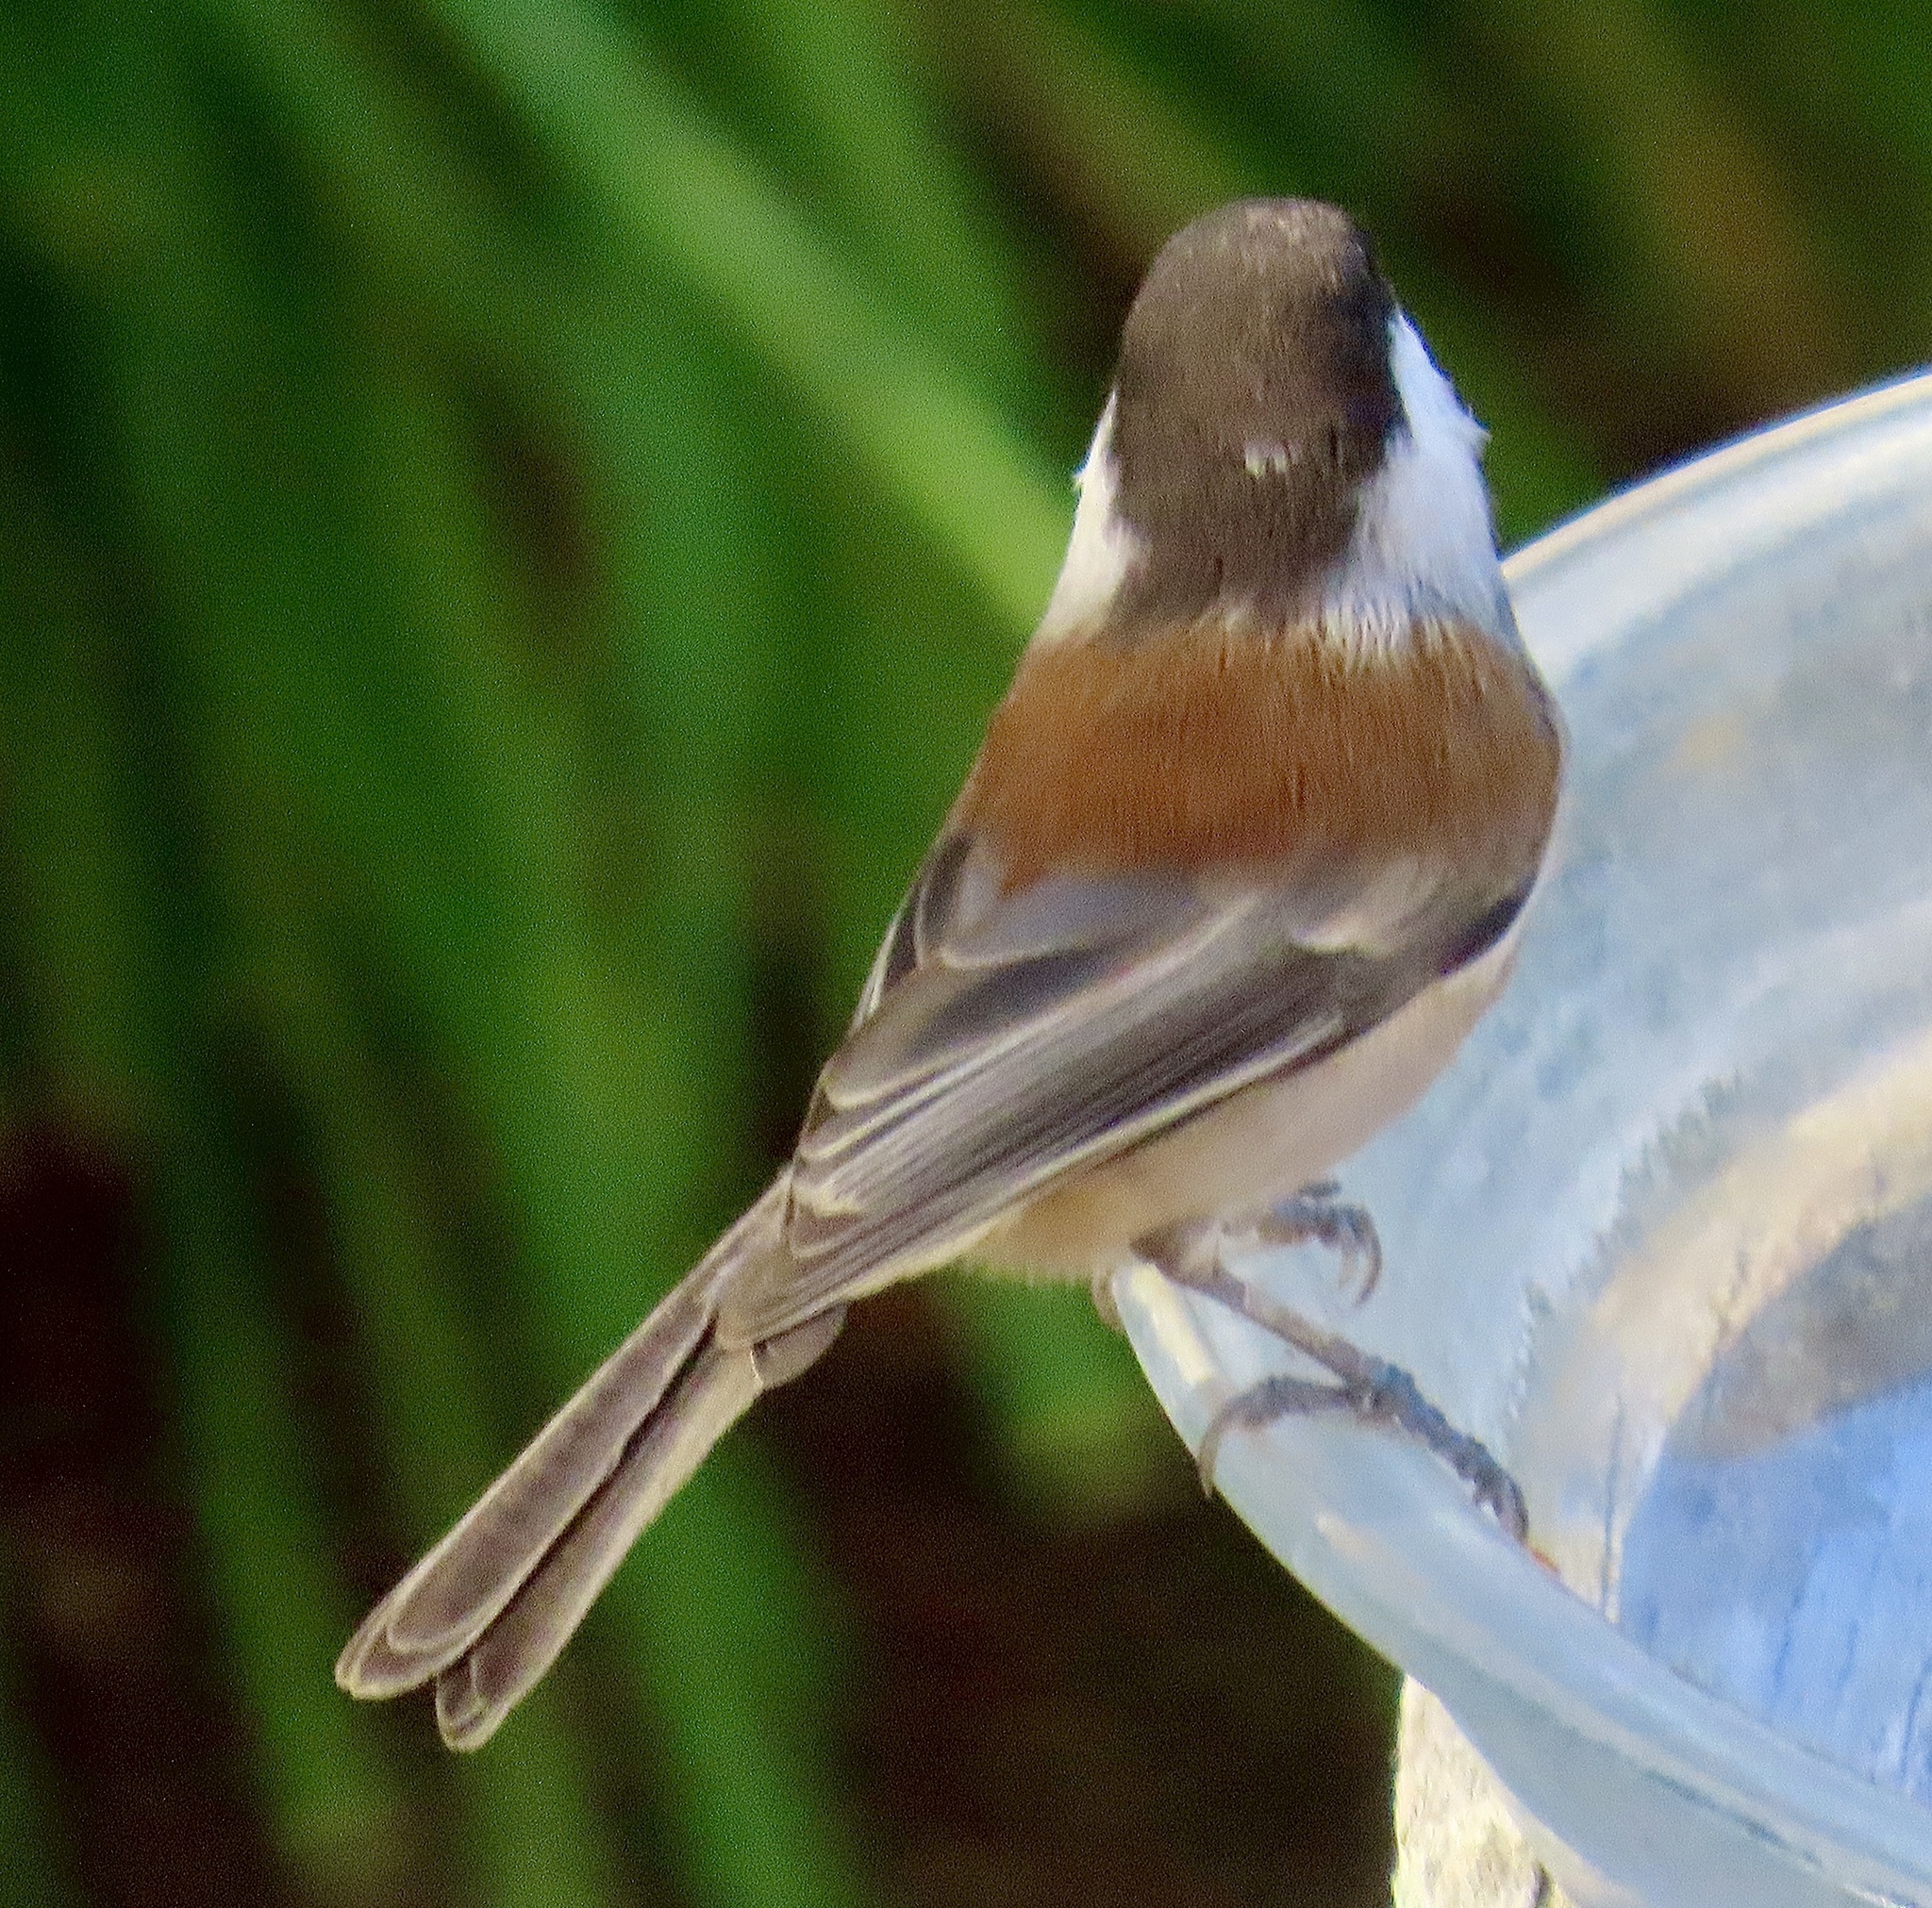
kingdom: Animalia
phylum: Chordata
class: Aves
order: Passeriformes
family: Paridae
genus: Poecile
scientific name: Poecile rufescens
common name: Chestnut-backed chickadee
